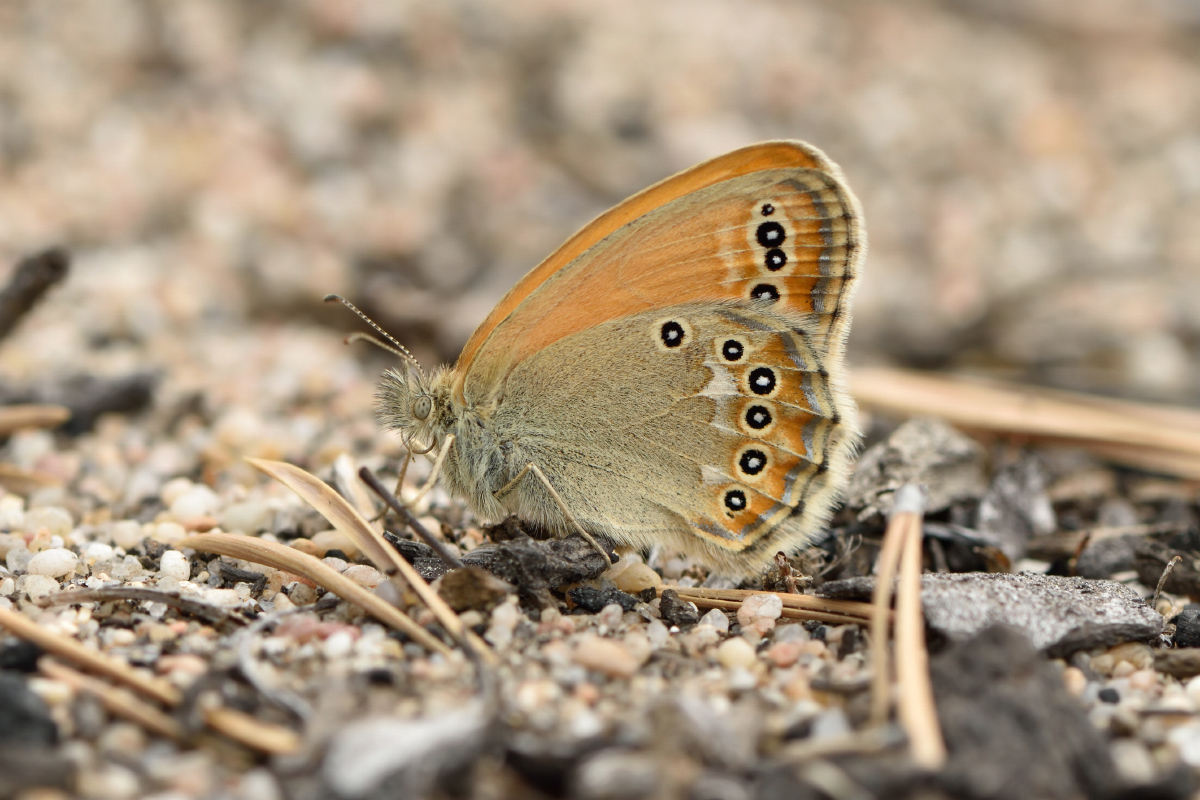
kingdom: Animalia
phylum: Arthropoda
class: Insecta
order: Lepidoptera
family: Nymphalidae
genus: Coenonympha
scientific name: Coenonympha amaryllis
